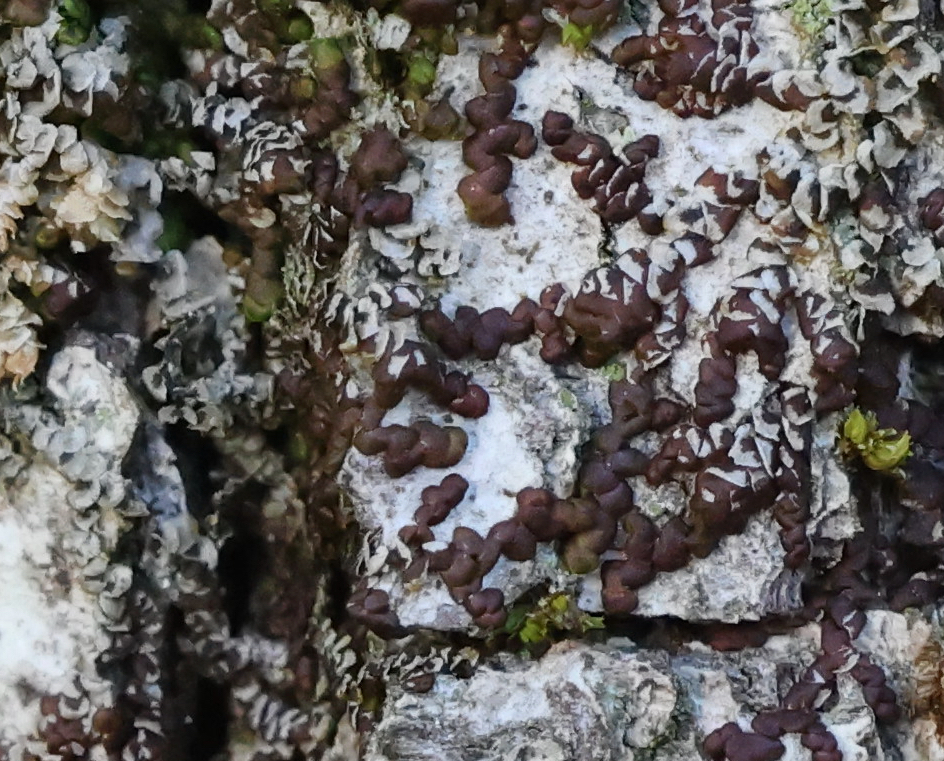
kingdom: Plantae
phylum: Marchantiophyta
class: Jungermanniopsida
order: Porellales
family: Frullaniaceae
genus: Frullania
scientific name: Frullania dilatata
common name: Dilated scalewort
